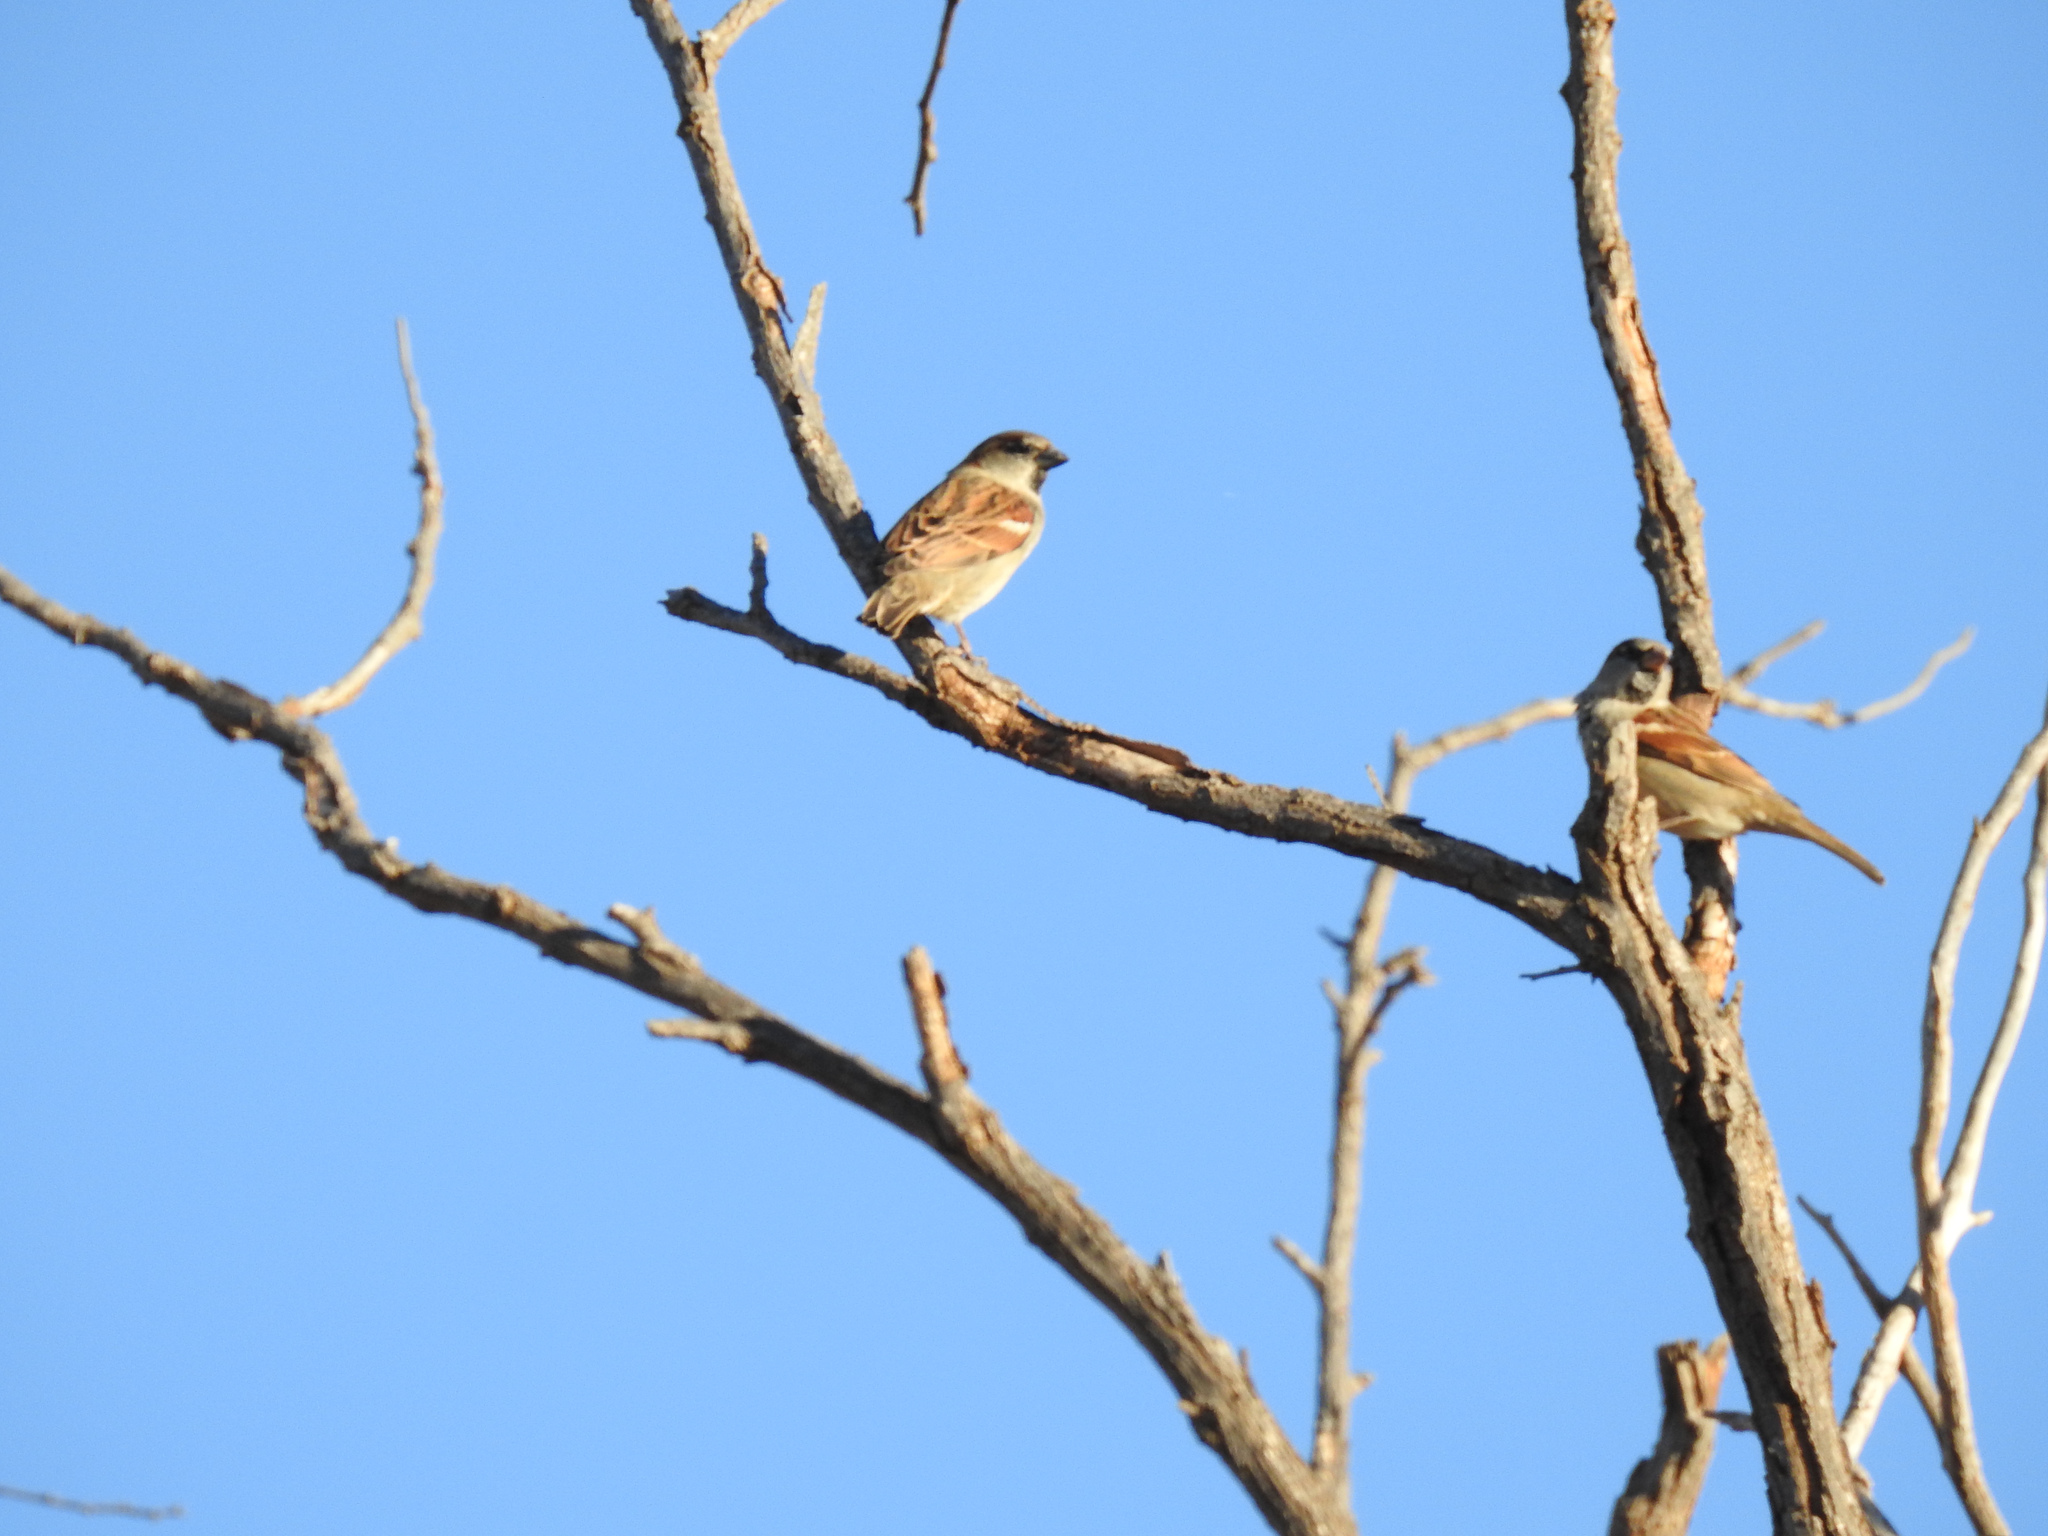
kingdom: Animalia
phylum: Chordata
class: Aves
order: Passeriformes
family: Passeridae
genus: Passer
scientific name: Passer domesticus
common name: House sparrow
